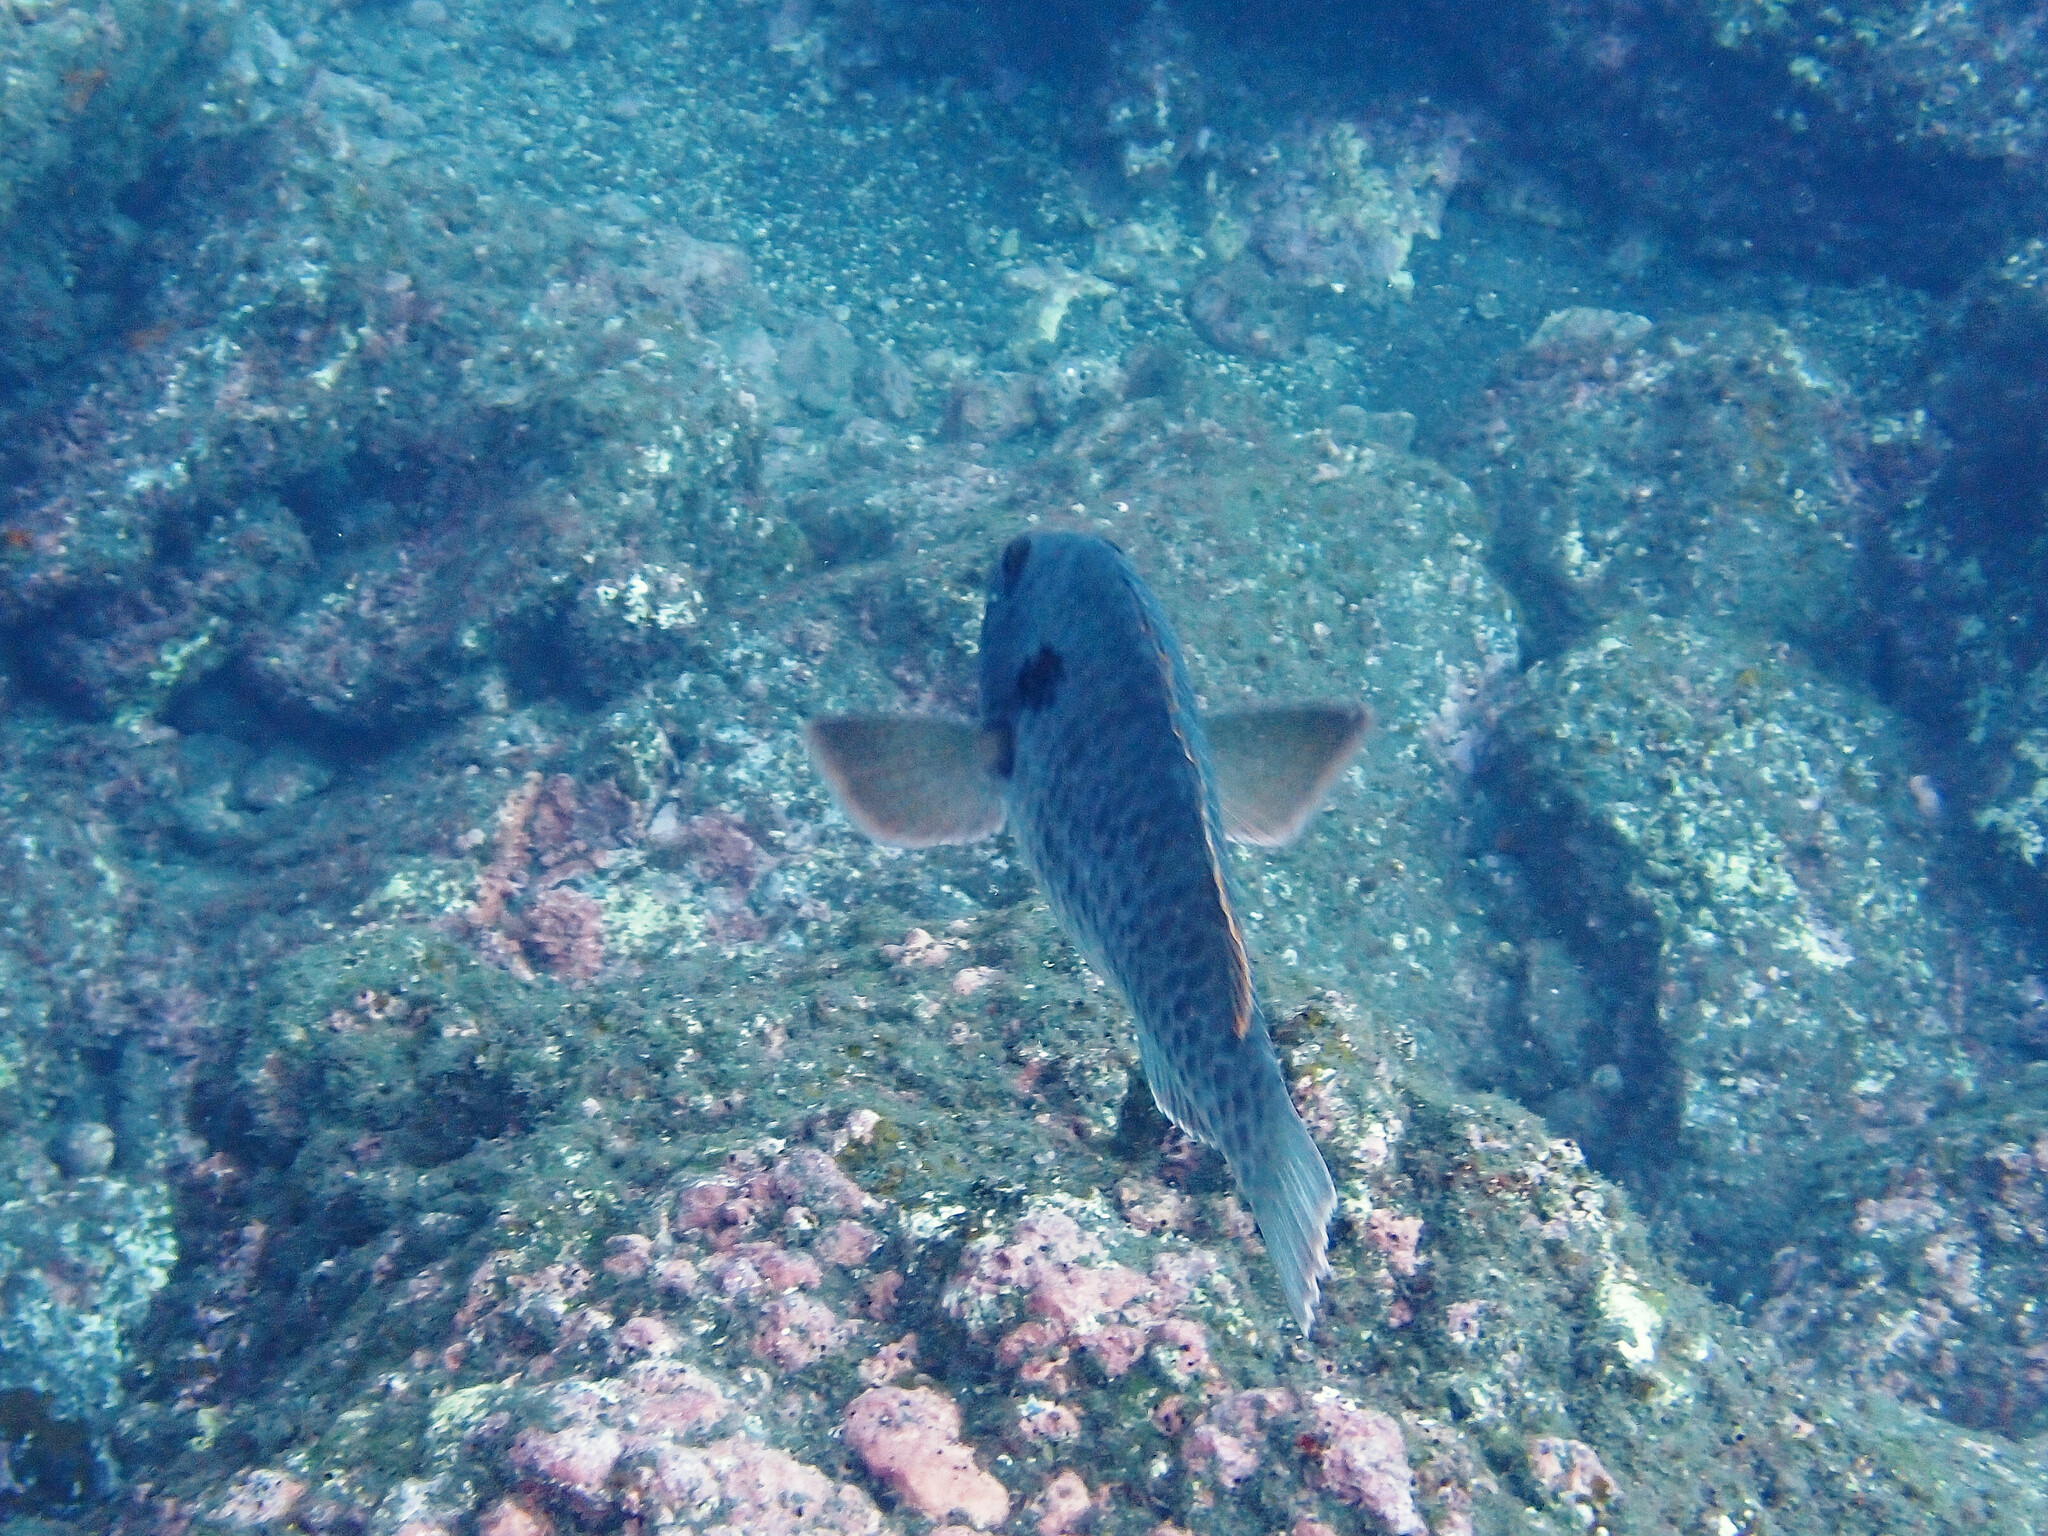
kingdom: Animalia
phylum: Chordata
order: Perciformes
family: Scaridae
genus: Sparisoma
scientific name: Sparisoma cretense
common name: Parrotfish
